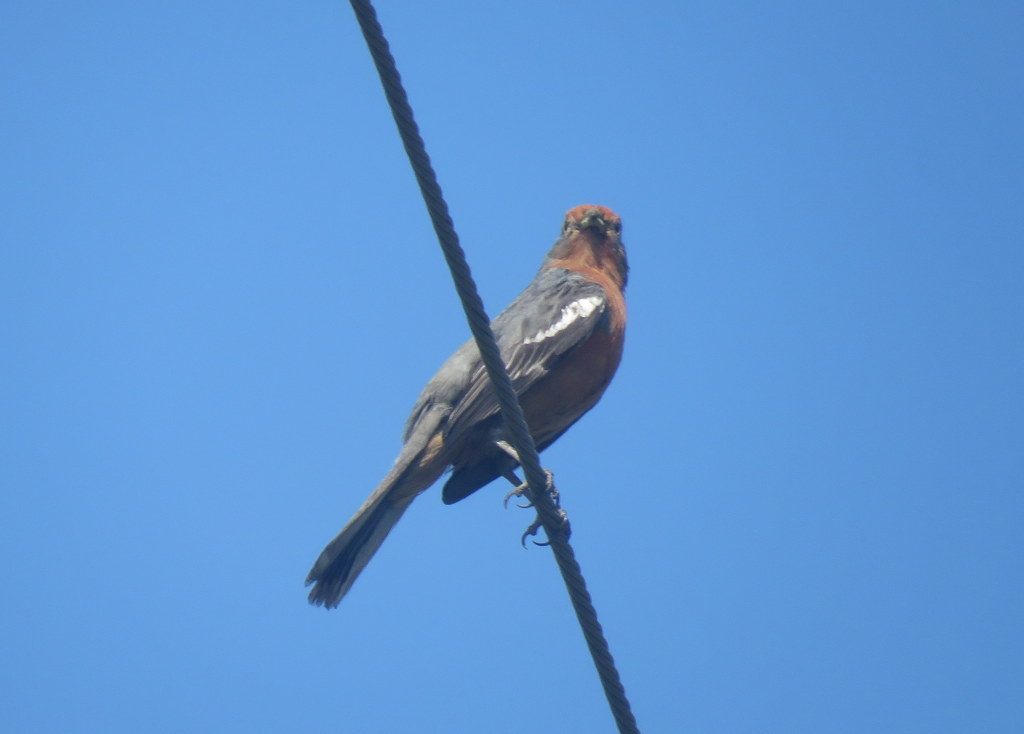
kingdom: Animalia
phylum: Chordata
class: Aves
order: Passeriformes
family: Cotingidae
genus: Phytotoma
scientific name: Phytotoma rutila
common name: White-tipped plantcutter
